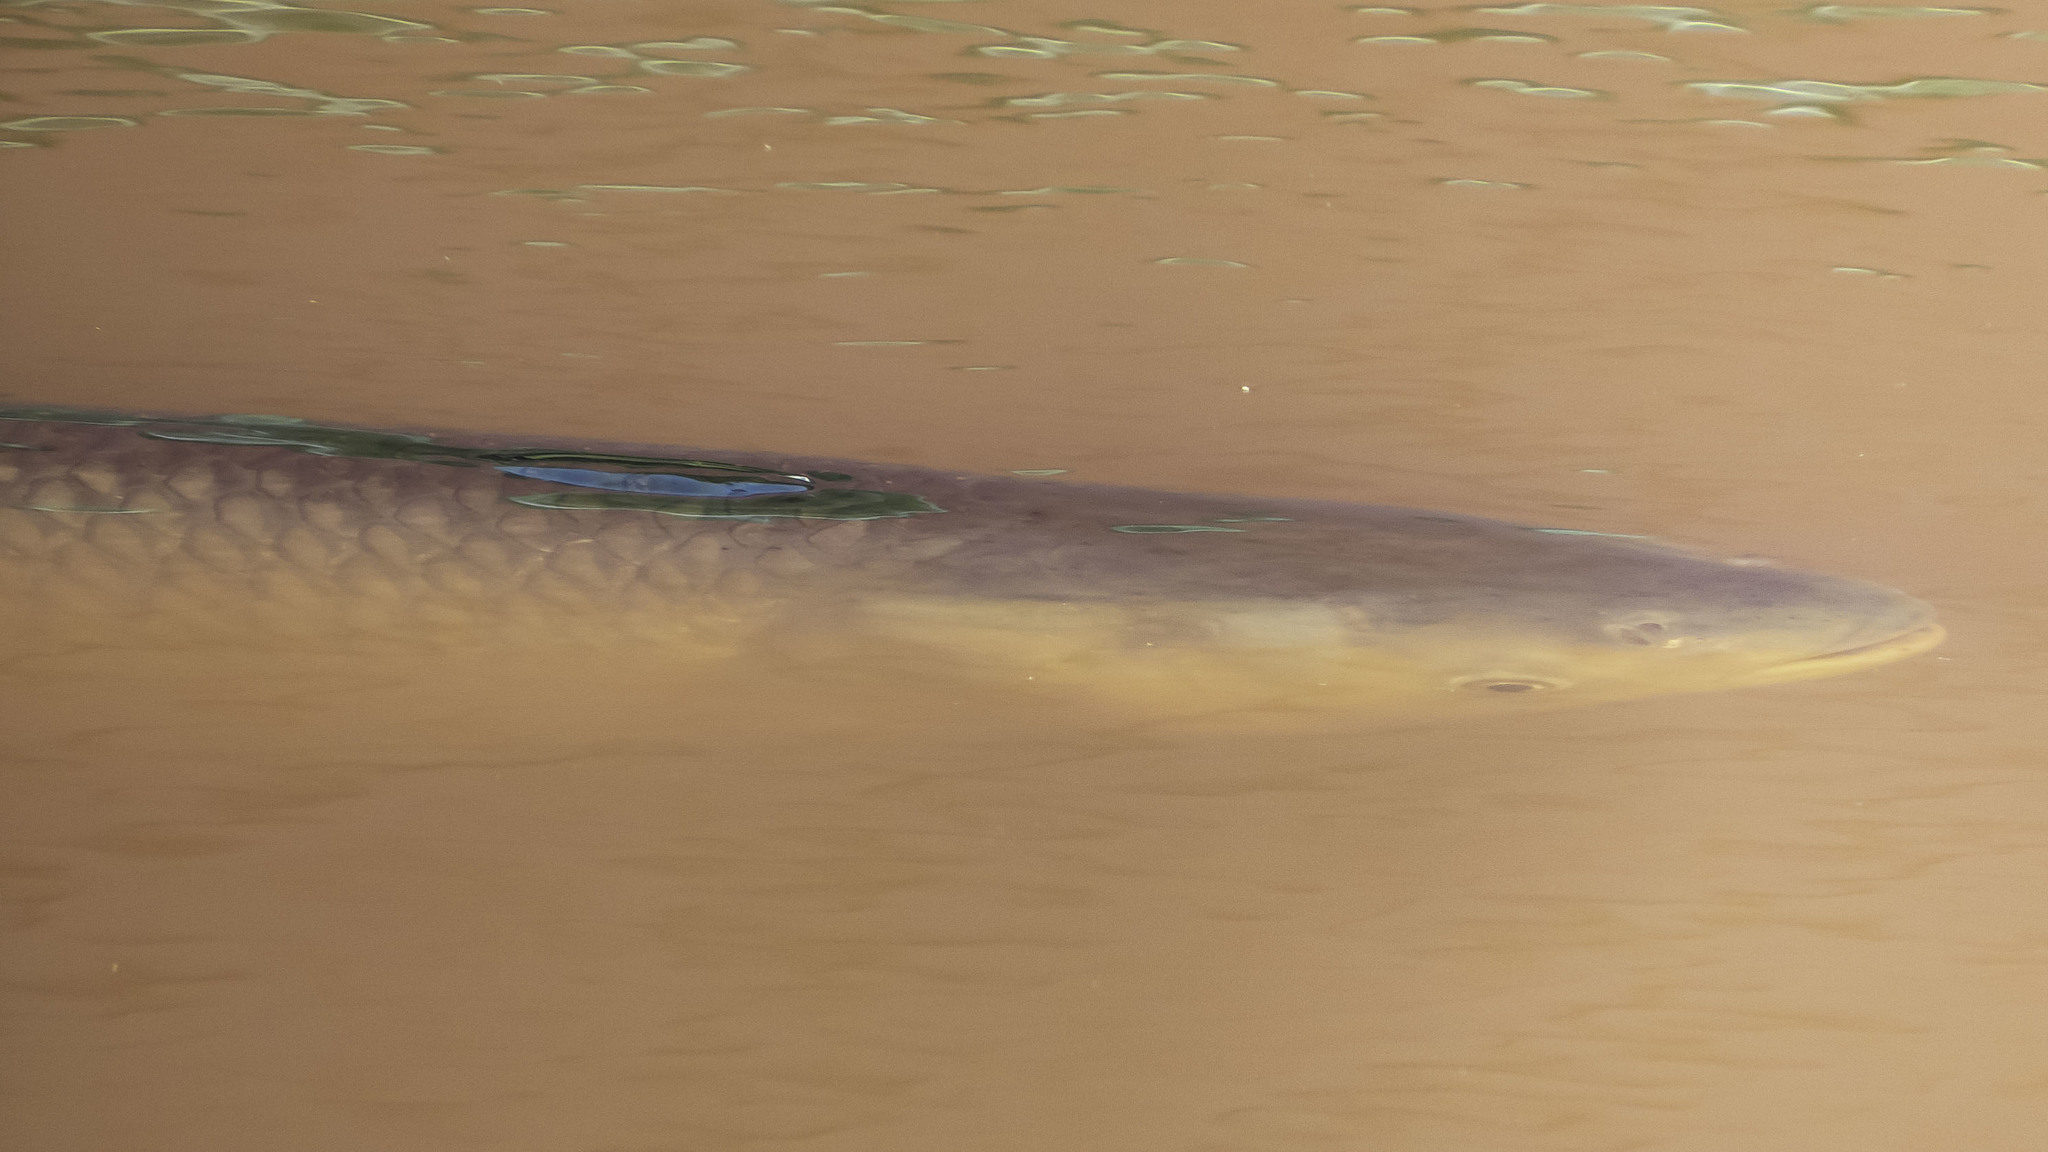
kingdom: Animalia
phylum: Chordata
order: Cypriniformes
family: Cyprinidae
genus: Ctenopharyngodon
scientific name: Ctenopharyngodon idella
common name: Grass carp
